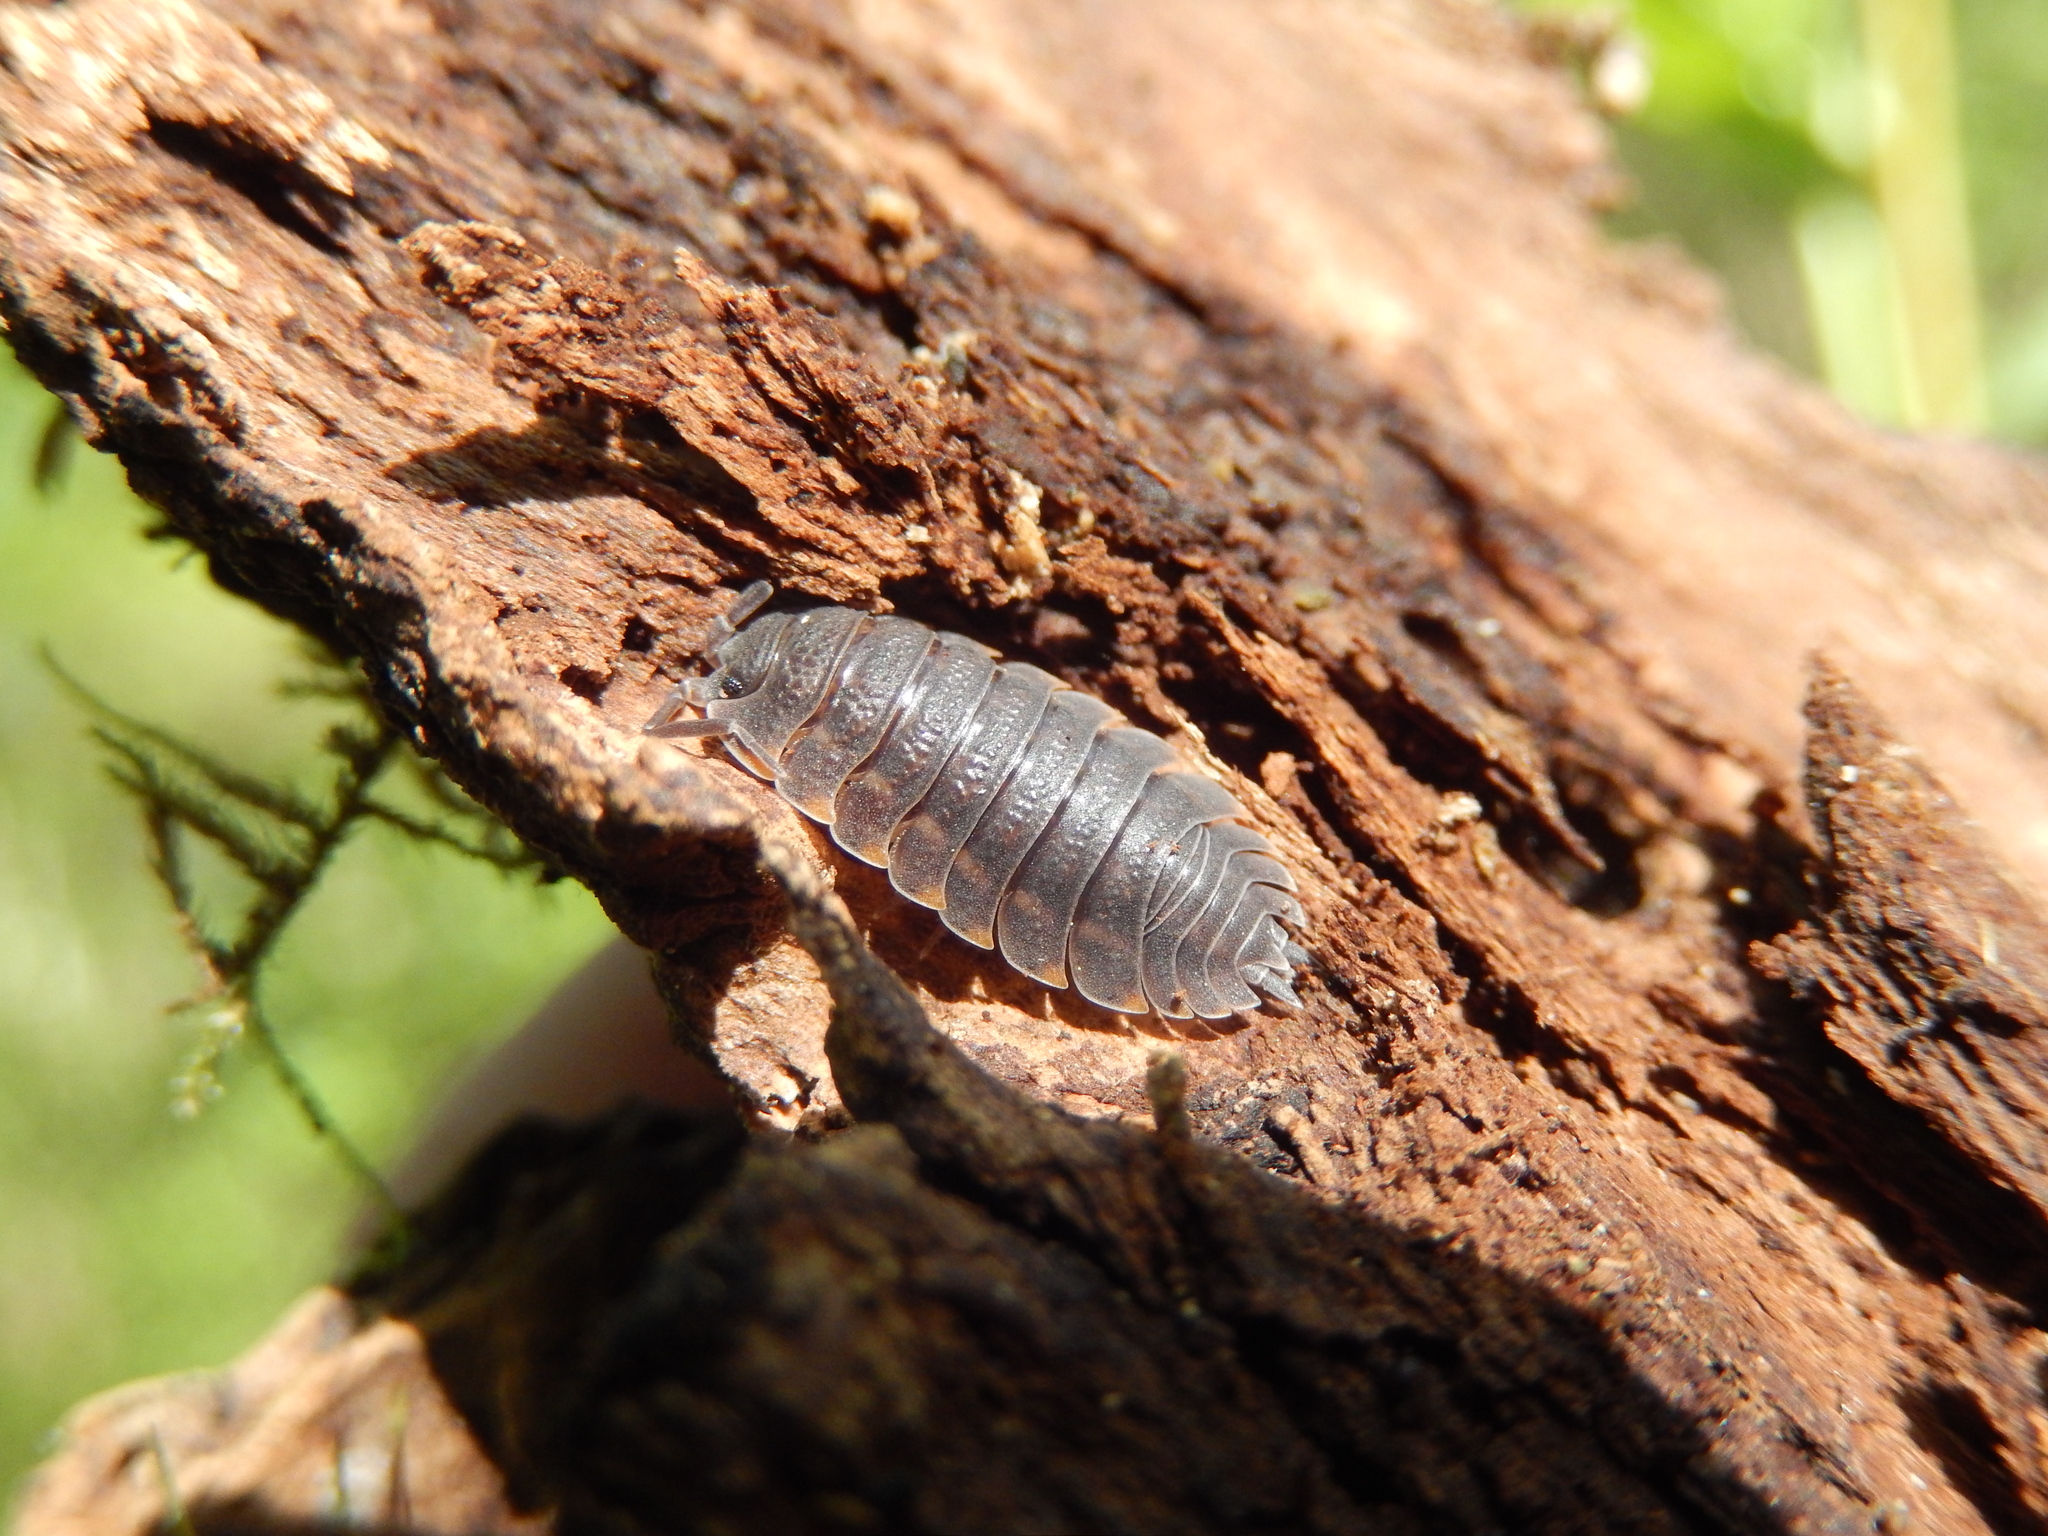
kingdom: Animalia
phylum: Arthropoda
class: Malacostraca
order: Isopoda
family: Trachelipodidae
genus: Trachelipus
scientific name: Trachelipus ratzeburgii
